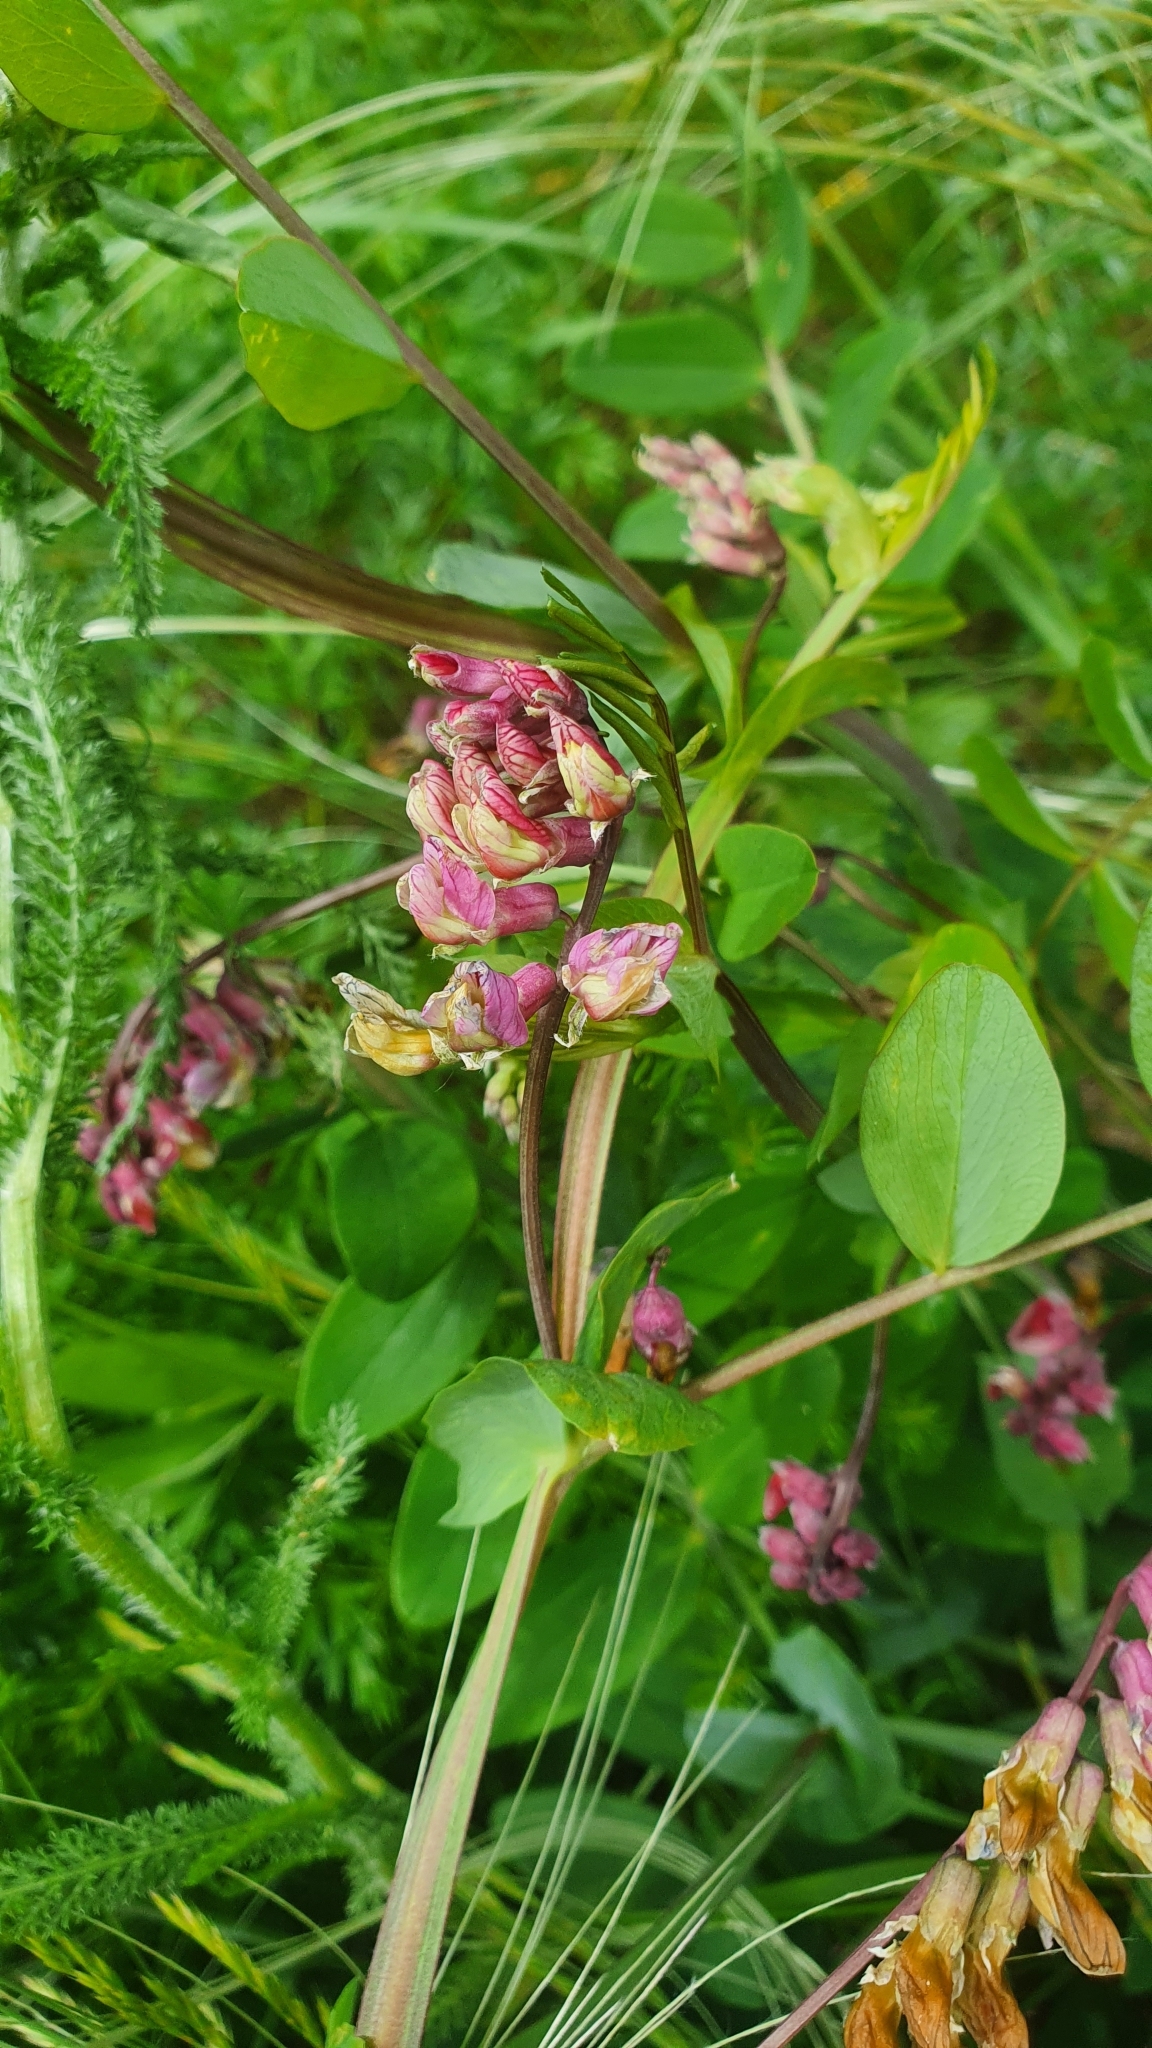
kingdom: Plantae
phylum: Tracheophyta
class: Magnoliopsida
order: Fabales
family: Fabaceae
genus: Lathyrus
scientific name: Lathyrus pisiformis
